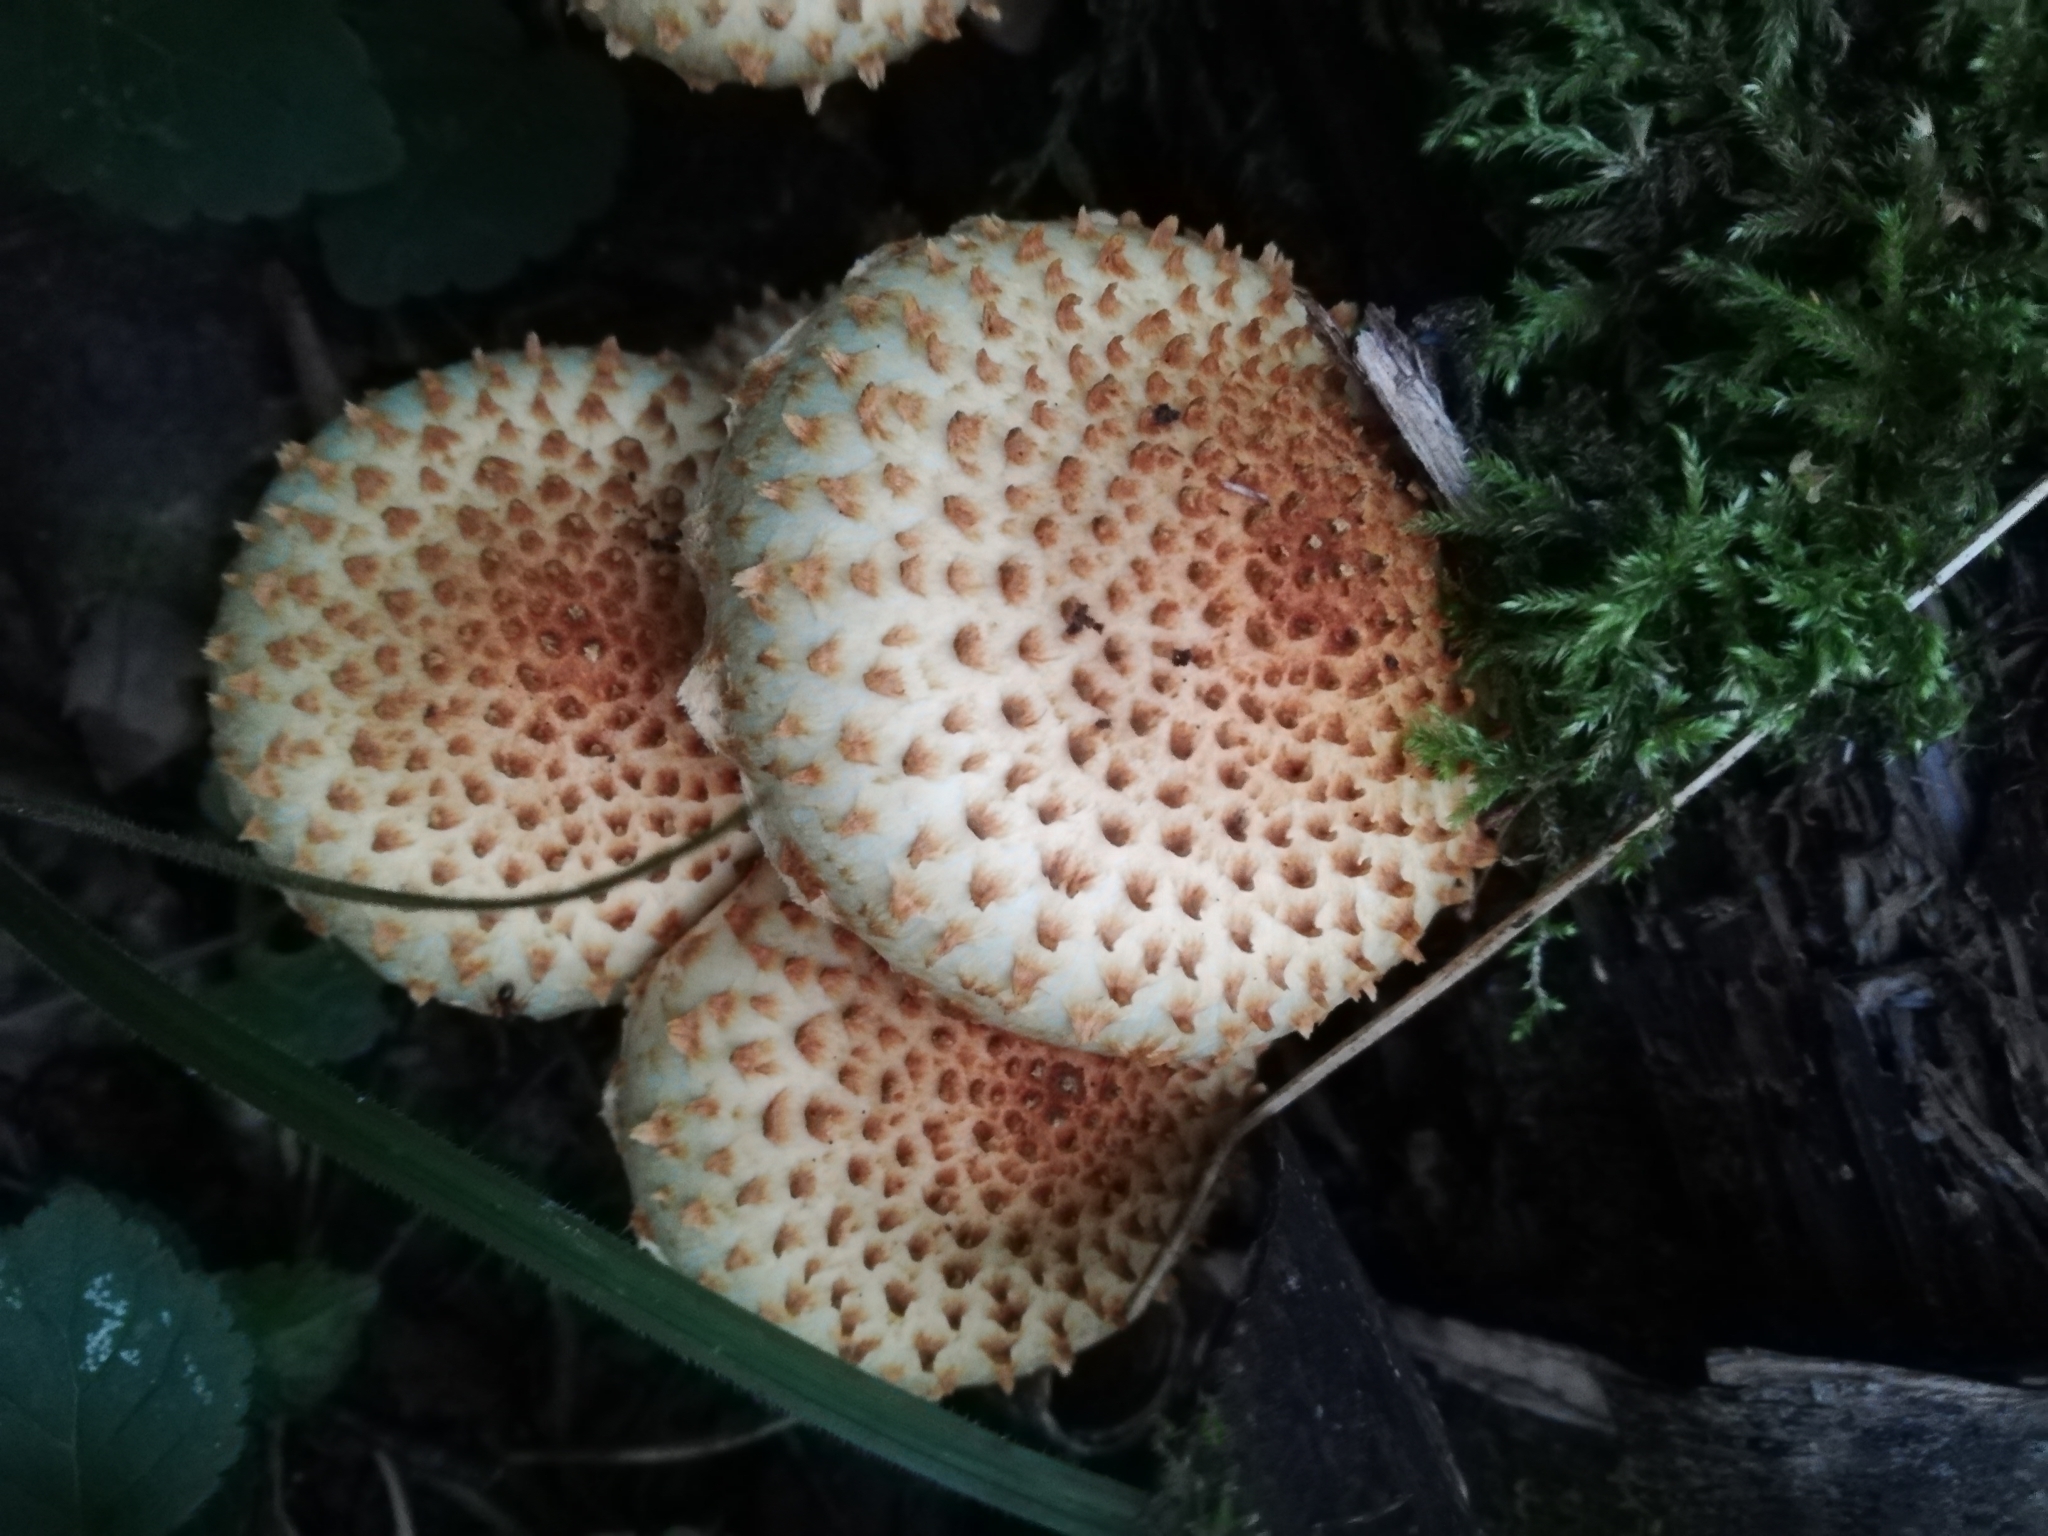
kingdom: Fungi
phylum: Basidiomycota
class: Agaricomycetes
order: Agaricales
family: Strophariaceae
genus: Pholiota
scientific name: Pholiota squarrosa
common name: Shaggy pholiota
